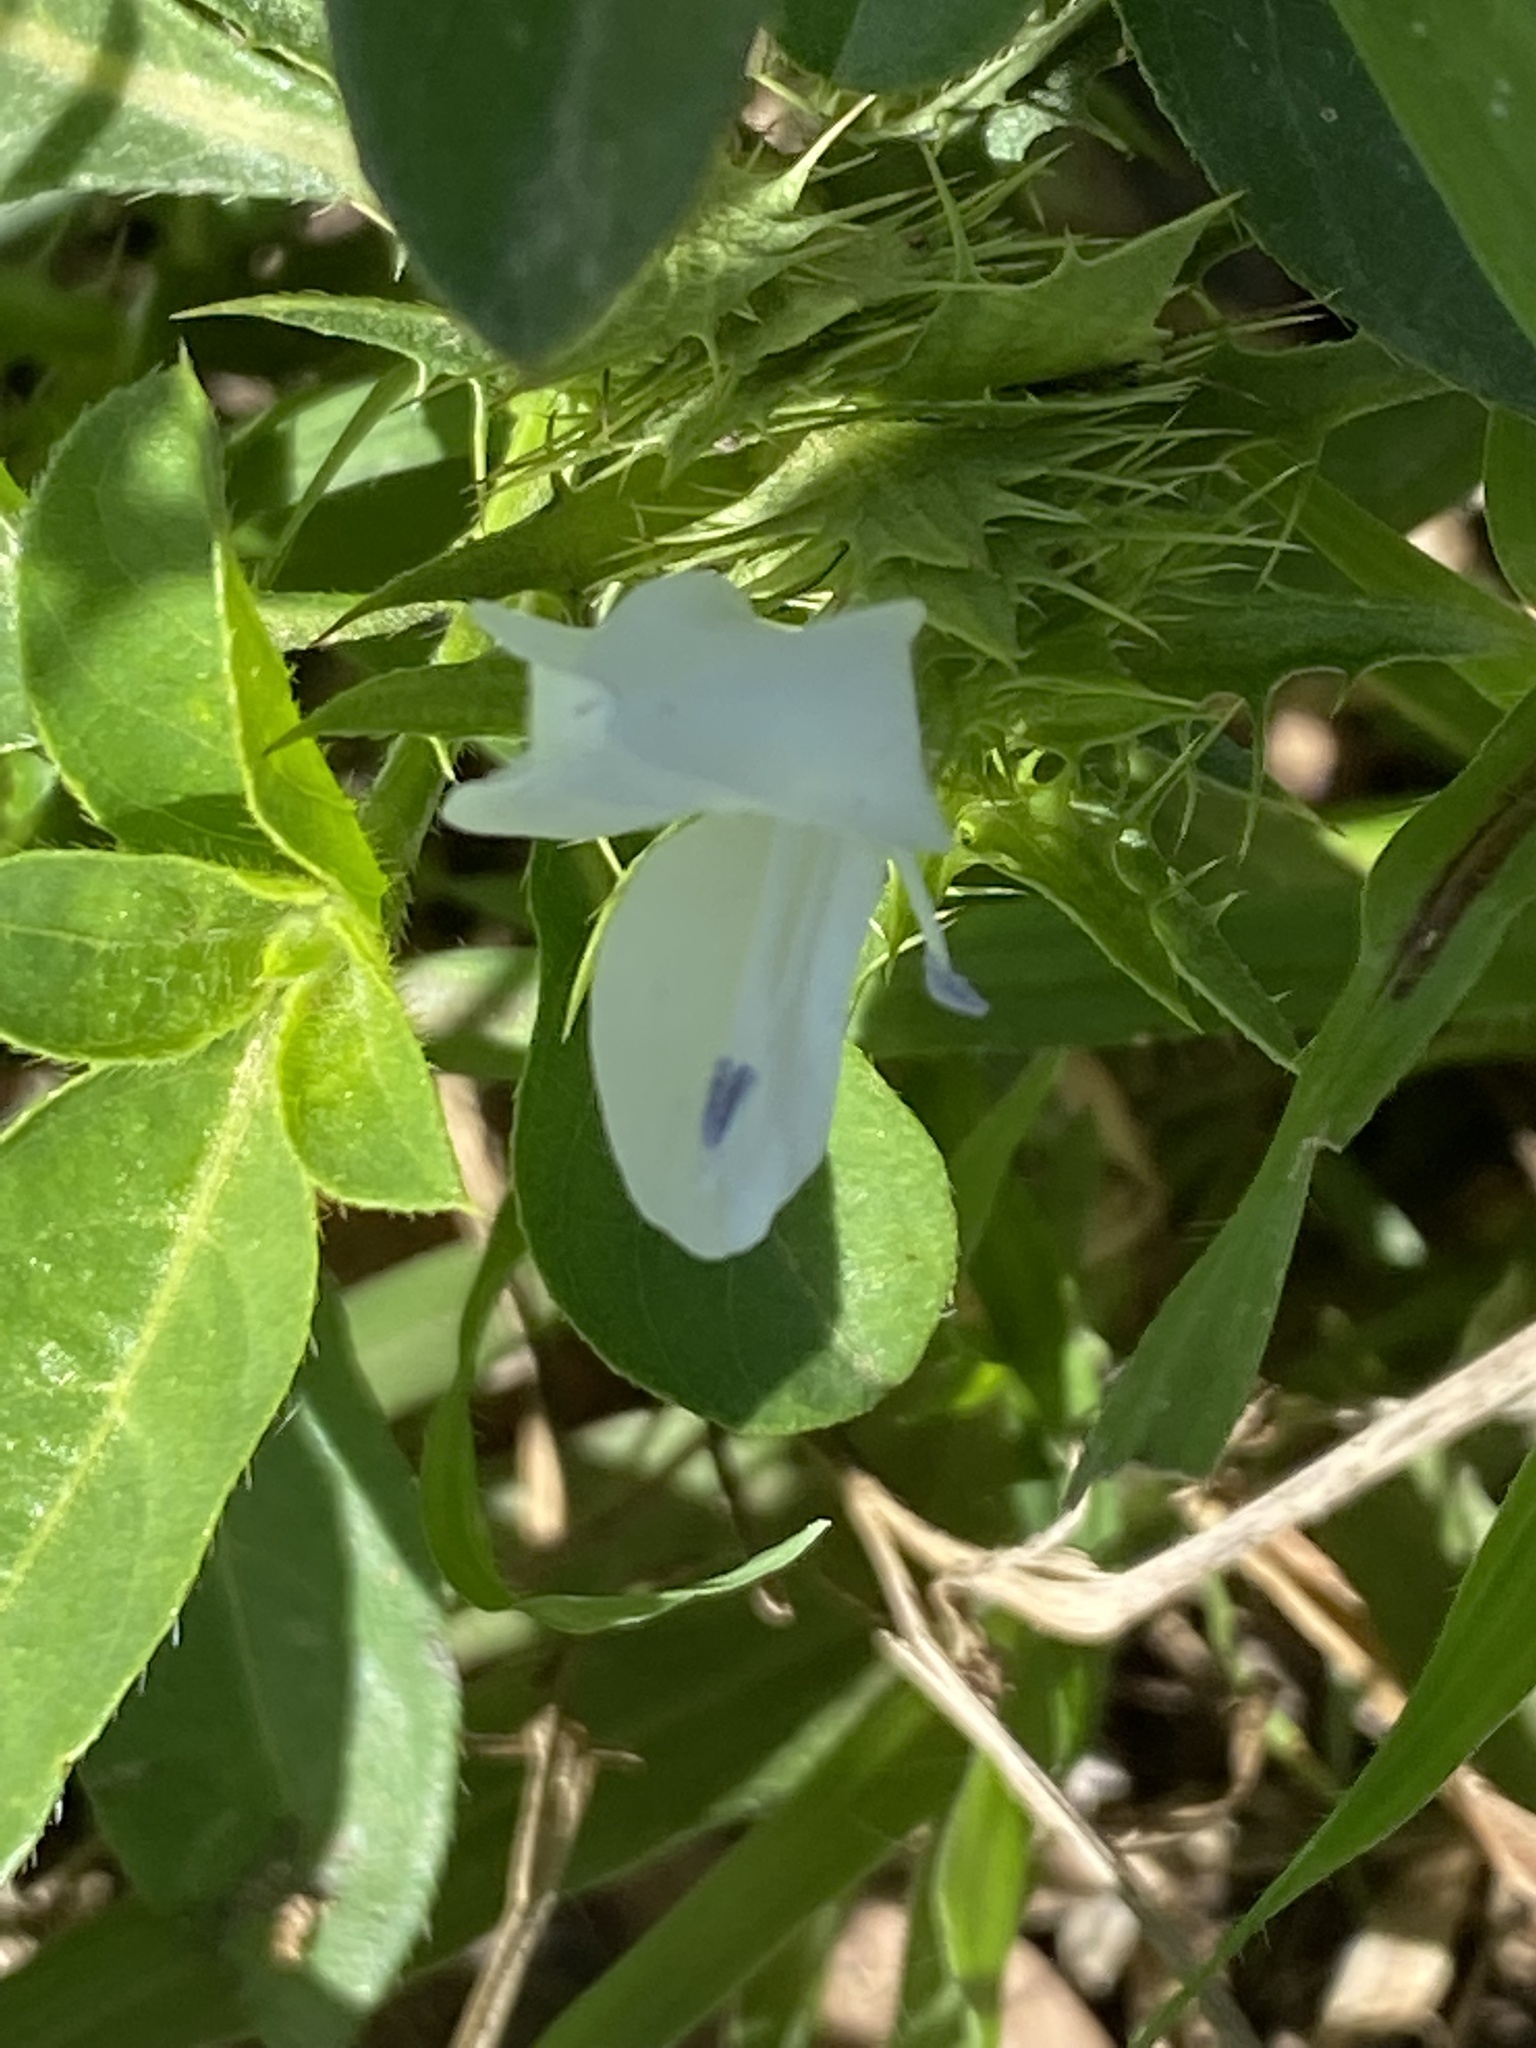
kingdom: Plantae
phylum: Tracheophyta
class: Magnoliopsida
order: Lamiales
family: Acanthaceae
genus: Barleria
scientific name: Barleria elegans
